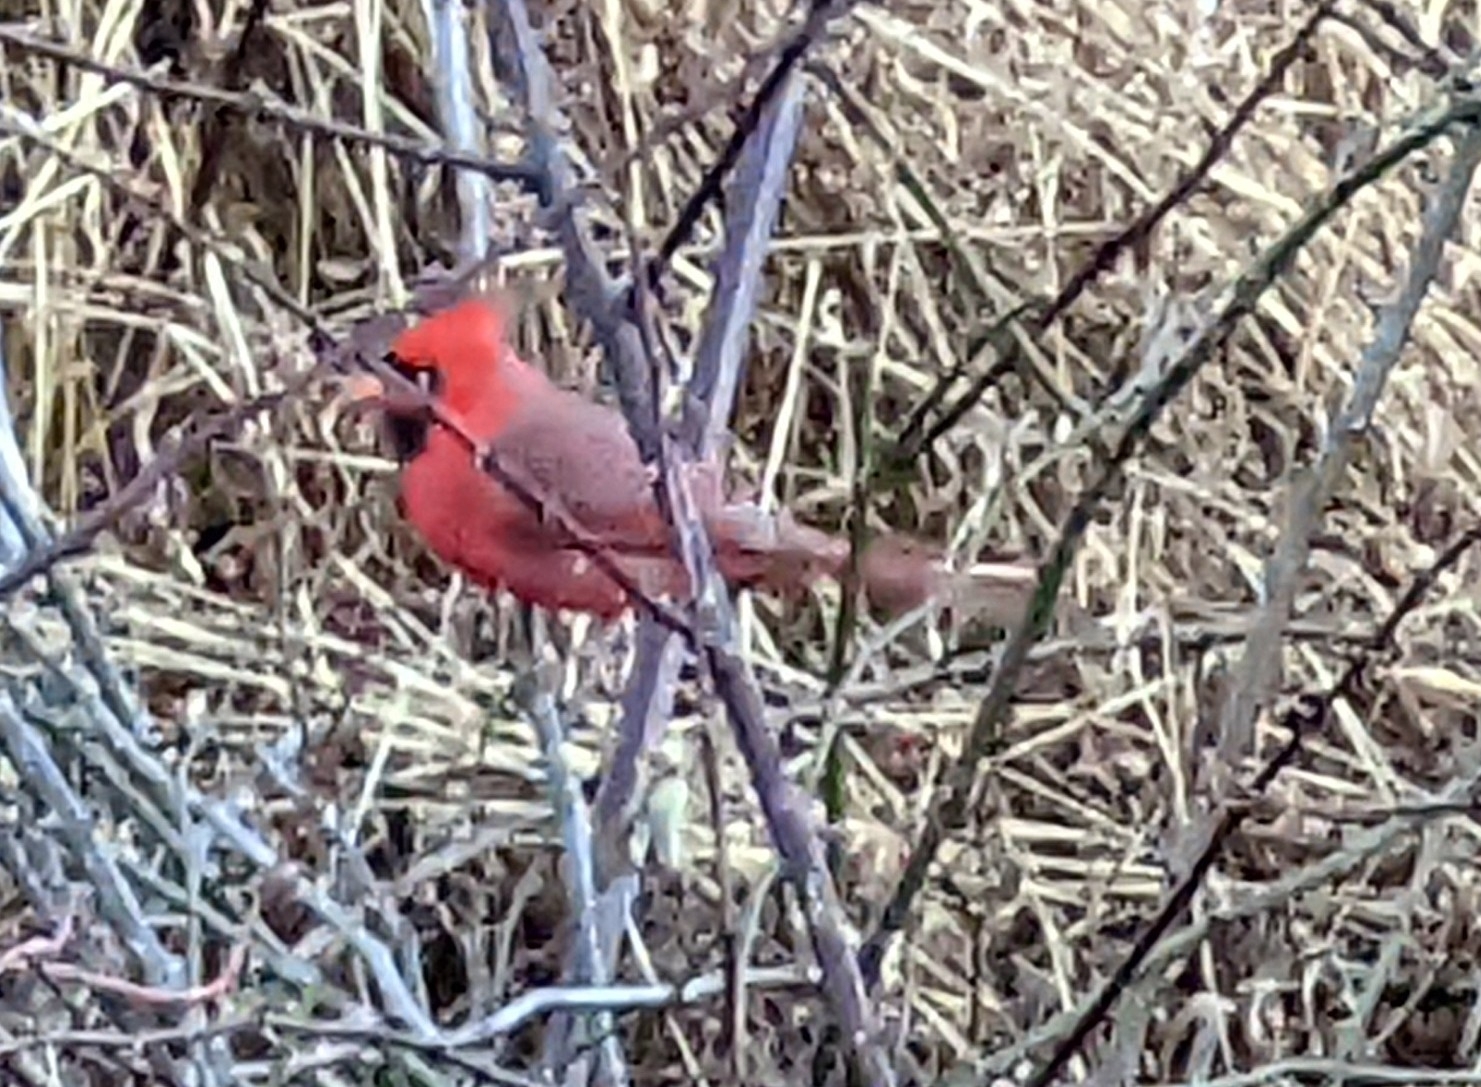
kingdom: Animalia
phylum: Chordata
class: Aves
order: Passeriformes
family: Cardinalidae
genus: Cardinalis
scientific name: Cardinalis cardinalis
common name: Northern cardinal
